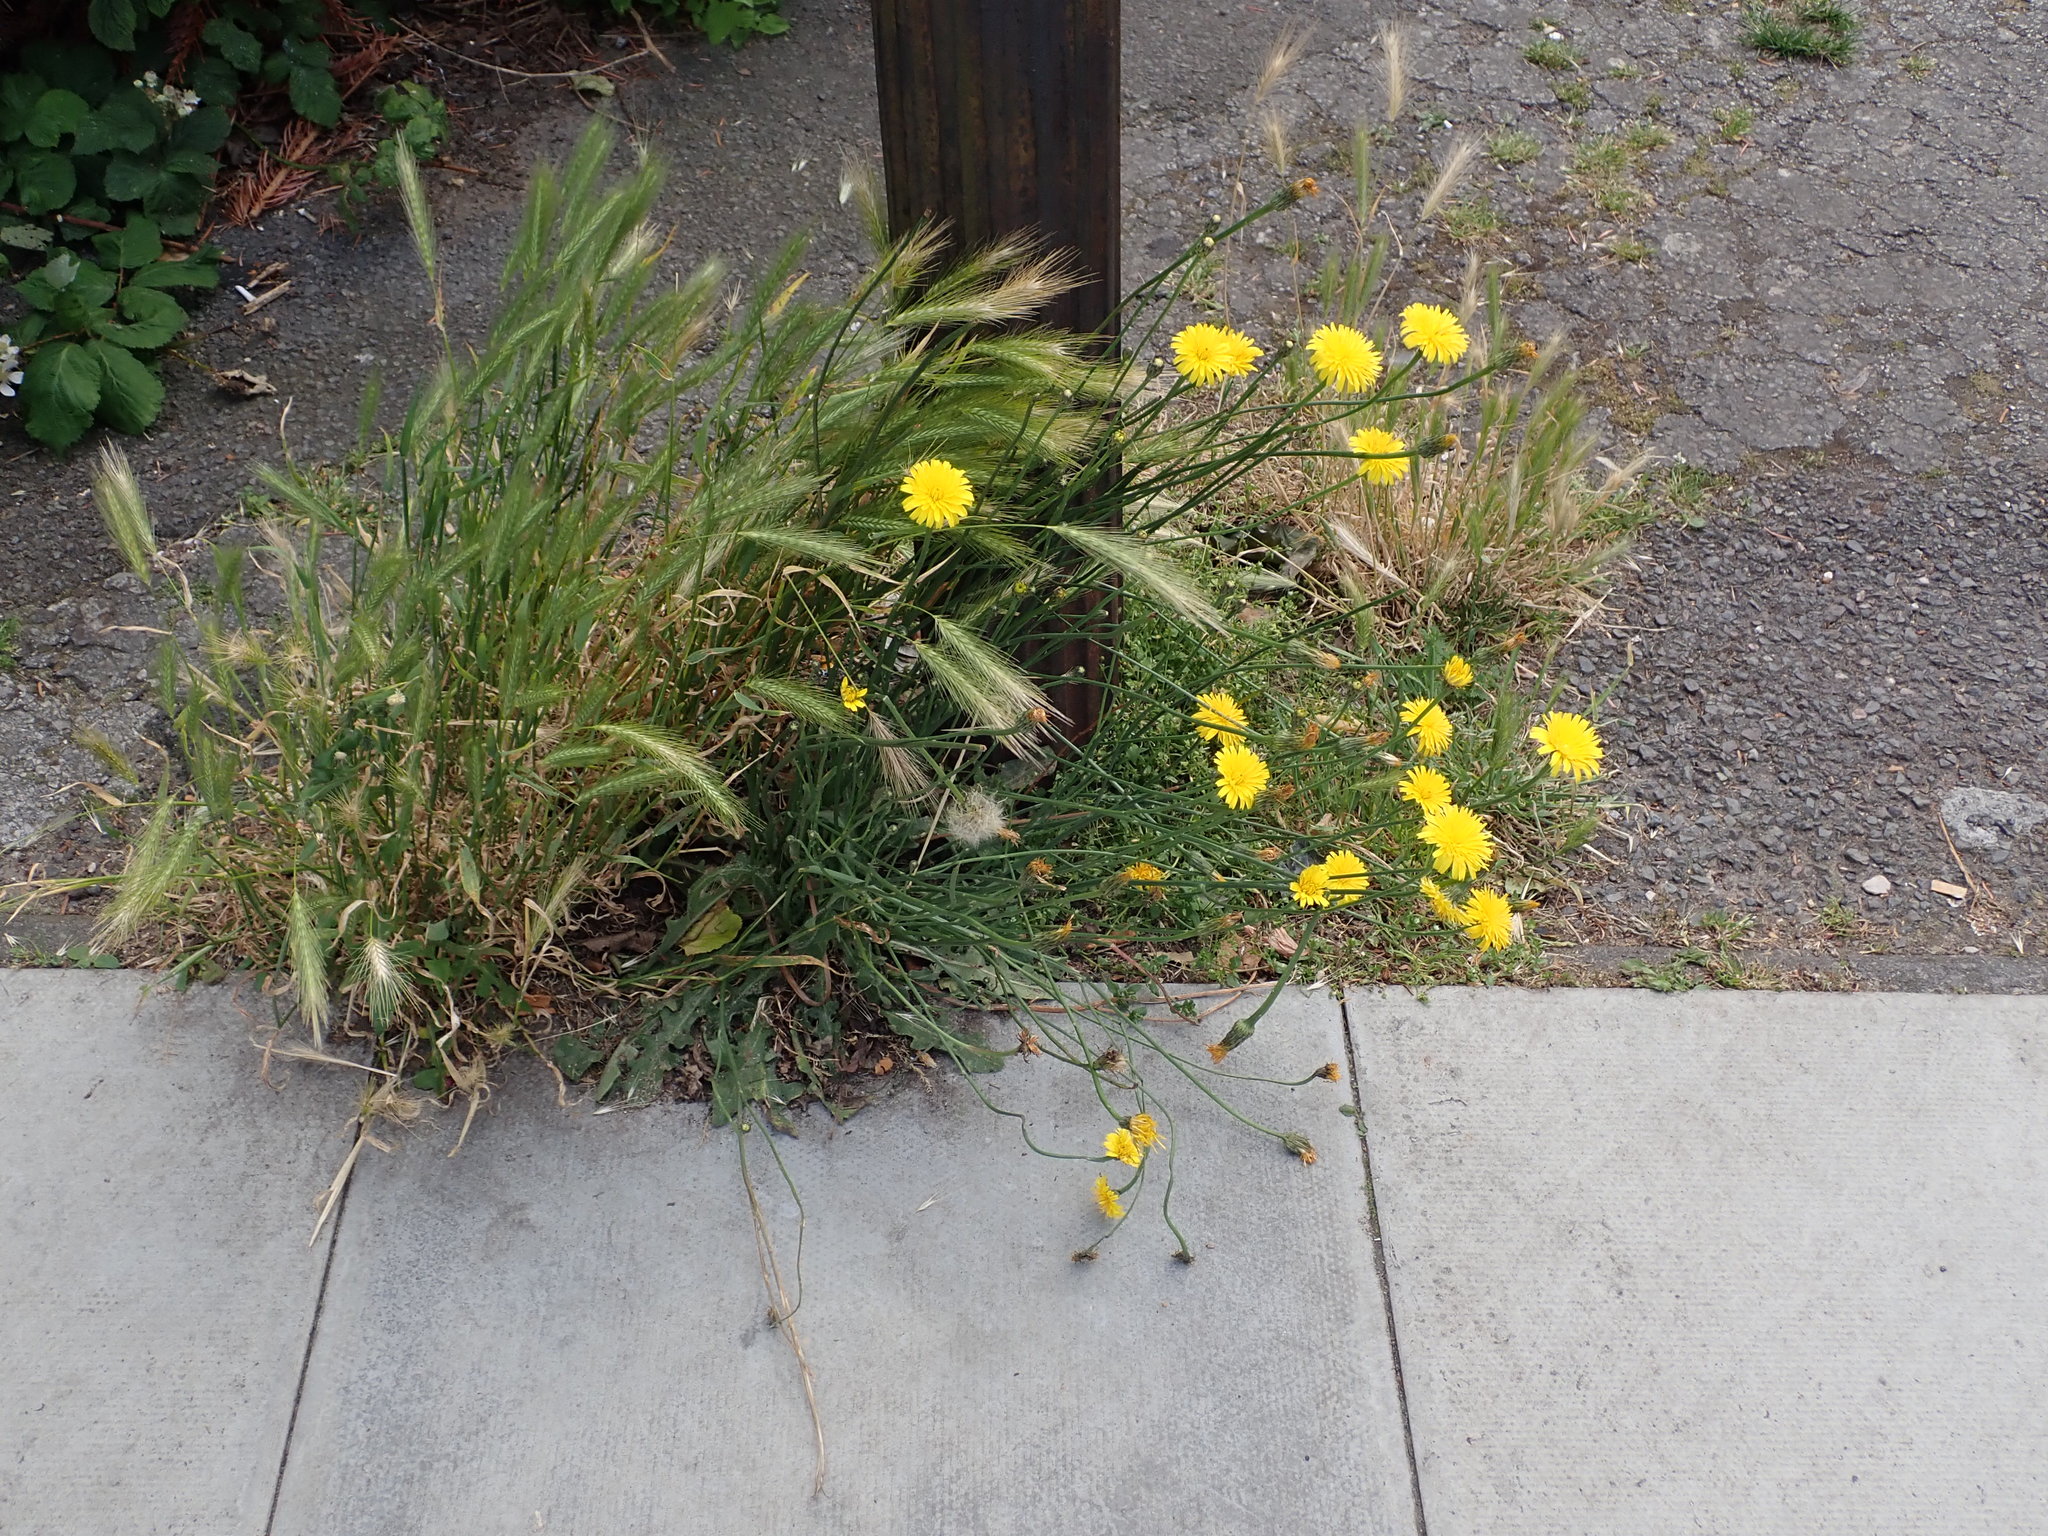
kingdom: Plantae
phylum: Tracheophyta
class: Magnoliopsida
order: Asterales
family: Asteraceae
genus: Hypochaeris
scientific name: Hypochaeris radicata
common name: Flatweed
